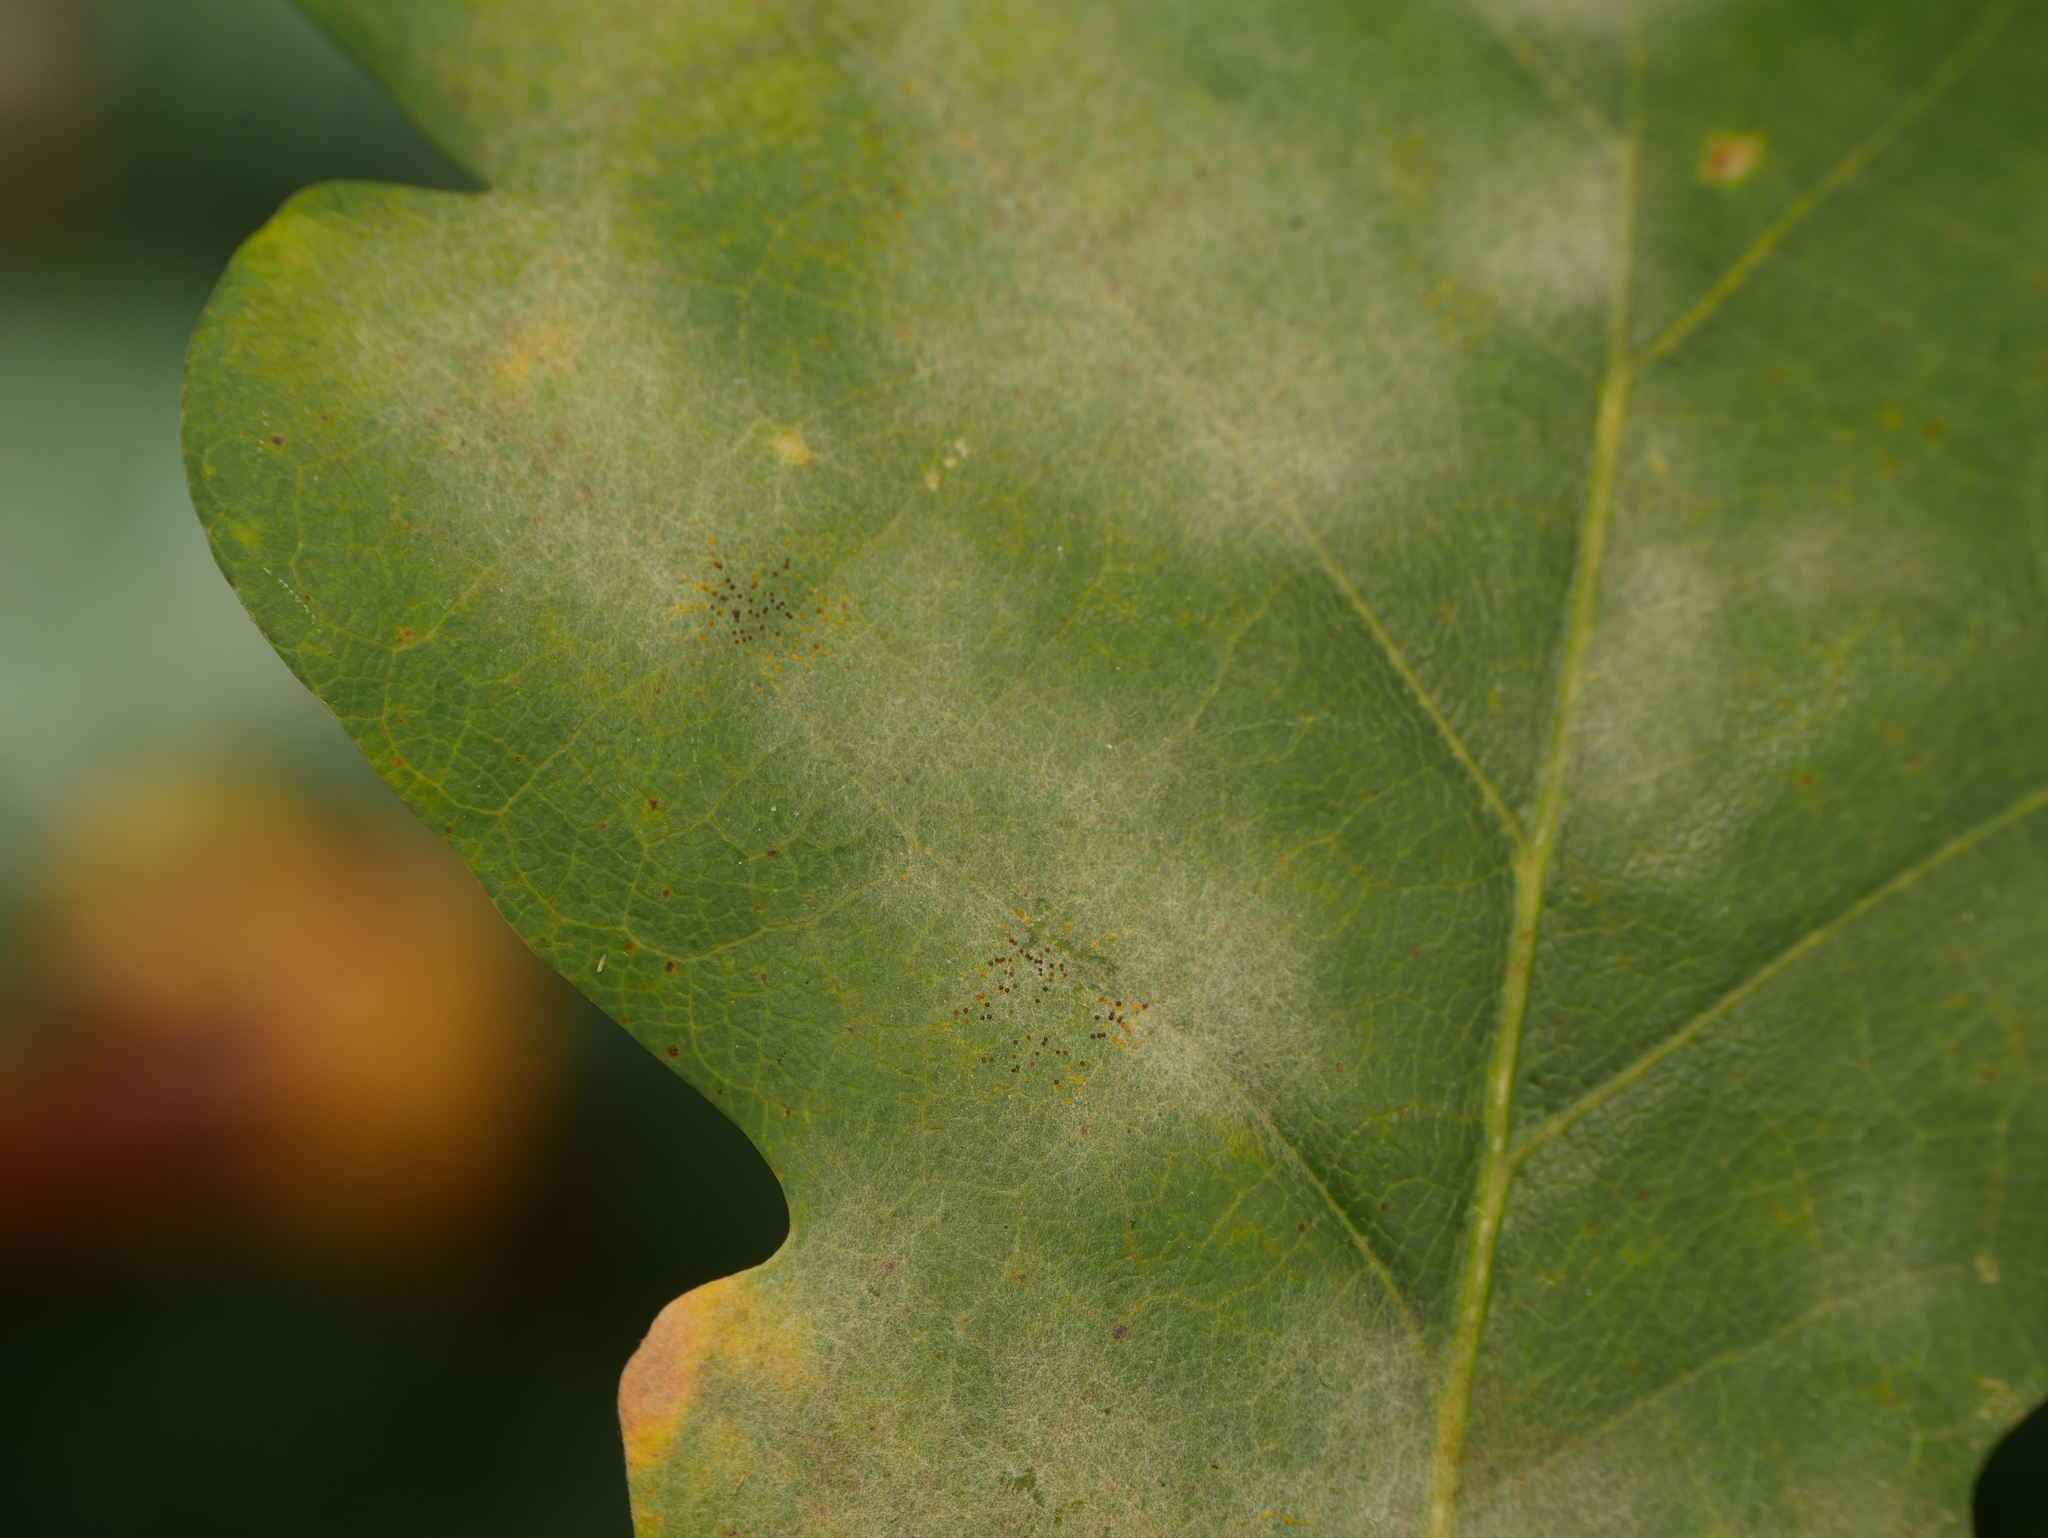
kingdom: Fungi
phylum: Ascomycota
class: Leotiomycetes
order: Helotiales
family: Erysiphaceae
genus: Erysiphe
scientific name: Erysiphe
